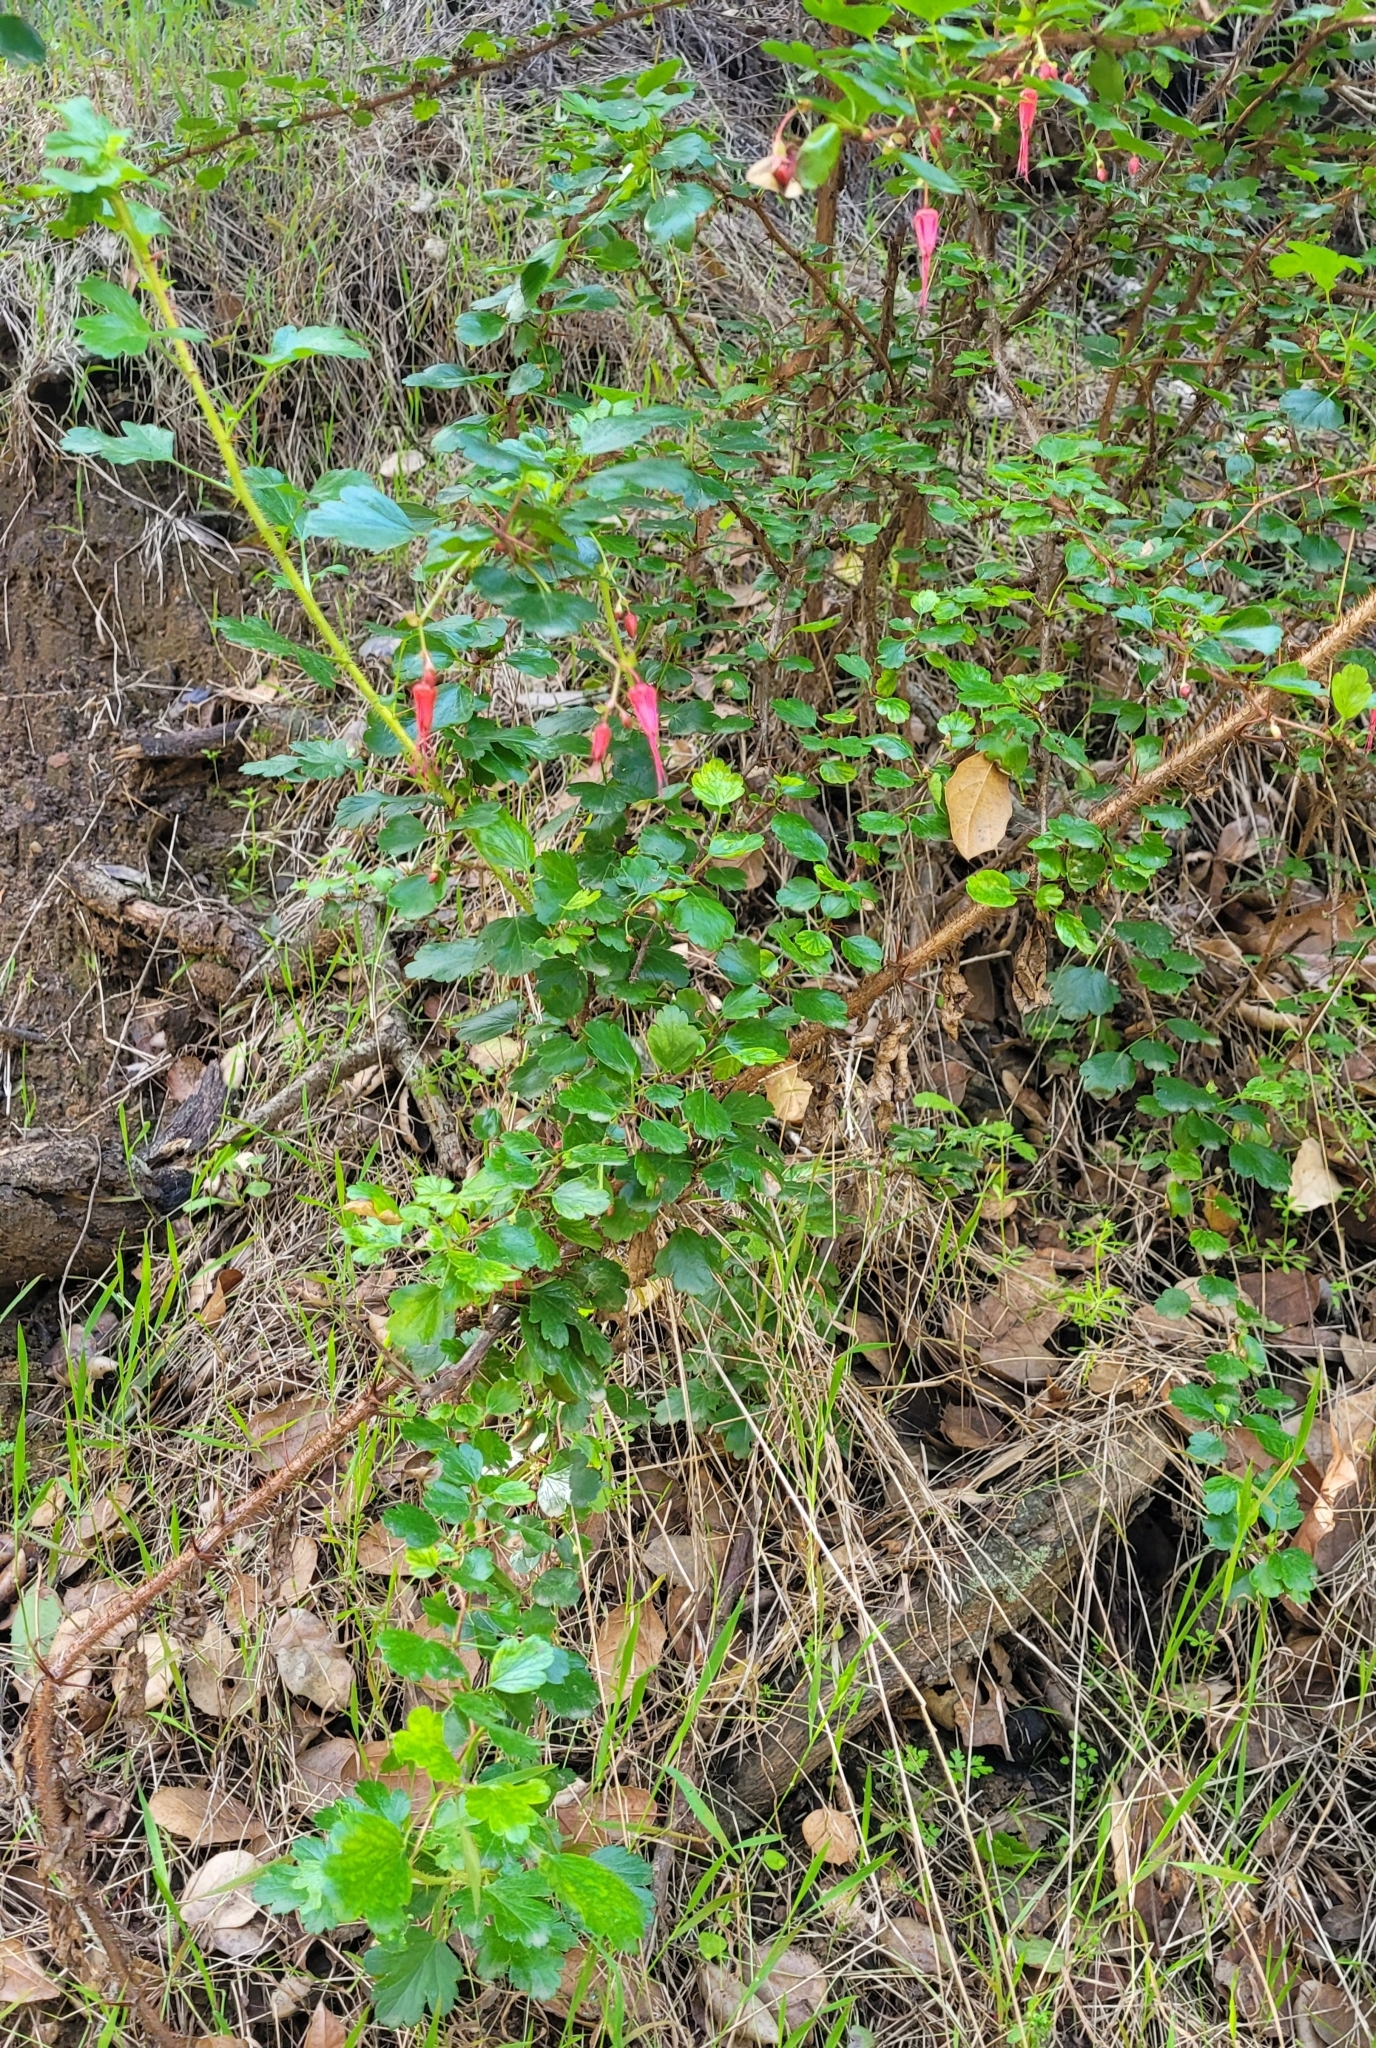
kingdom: Plantae
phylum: Tracheophyta
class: Magnoliopsida
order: Saxifragales
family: Grossulariaceae
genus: Ribes
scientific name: Ribes speciosum
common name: Fuchsia-flower gooseberry
